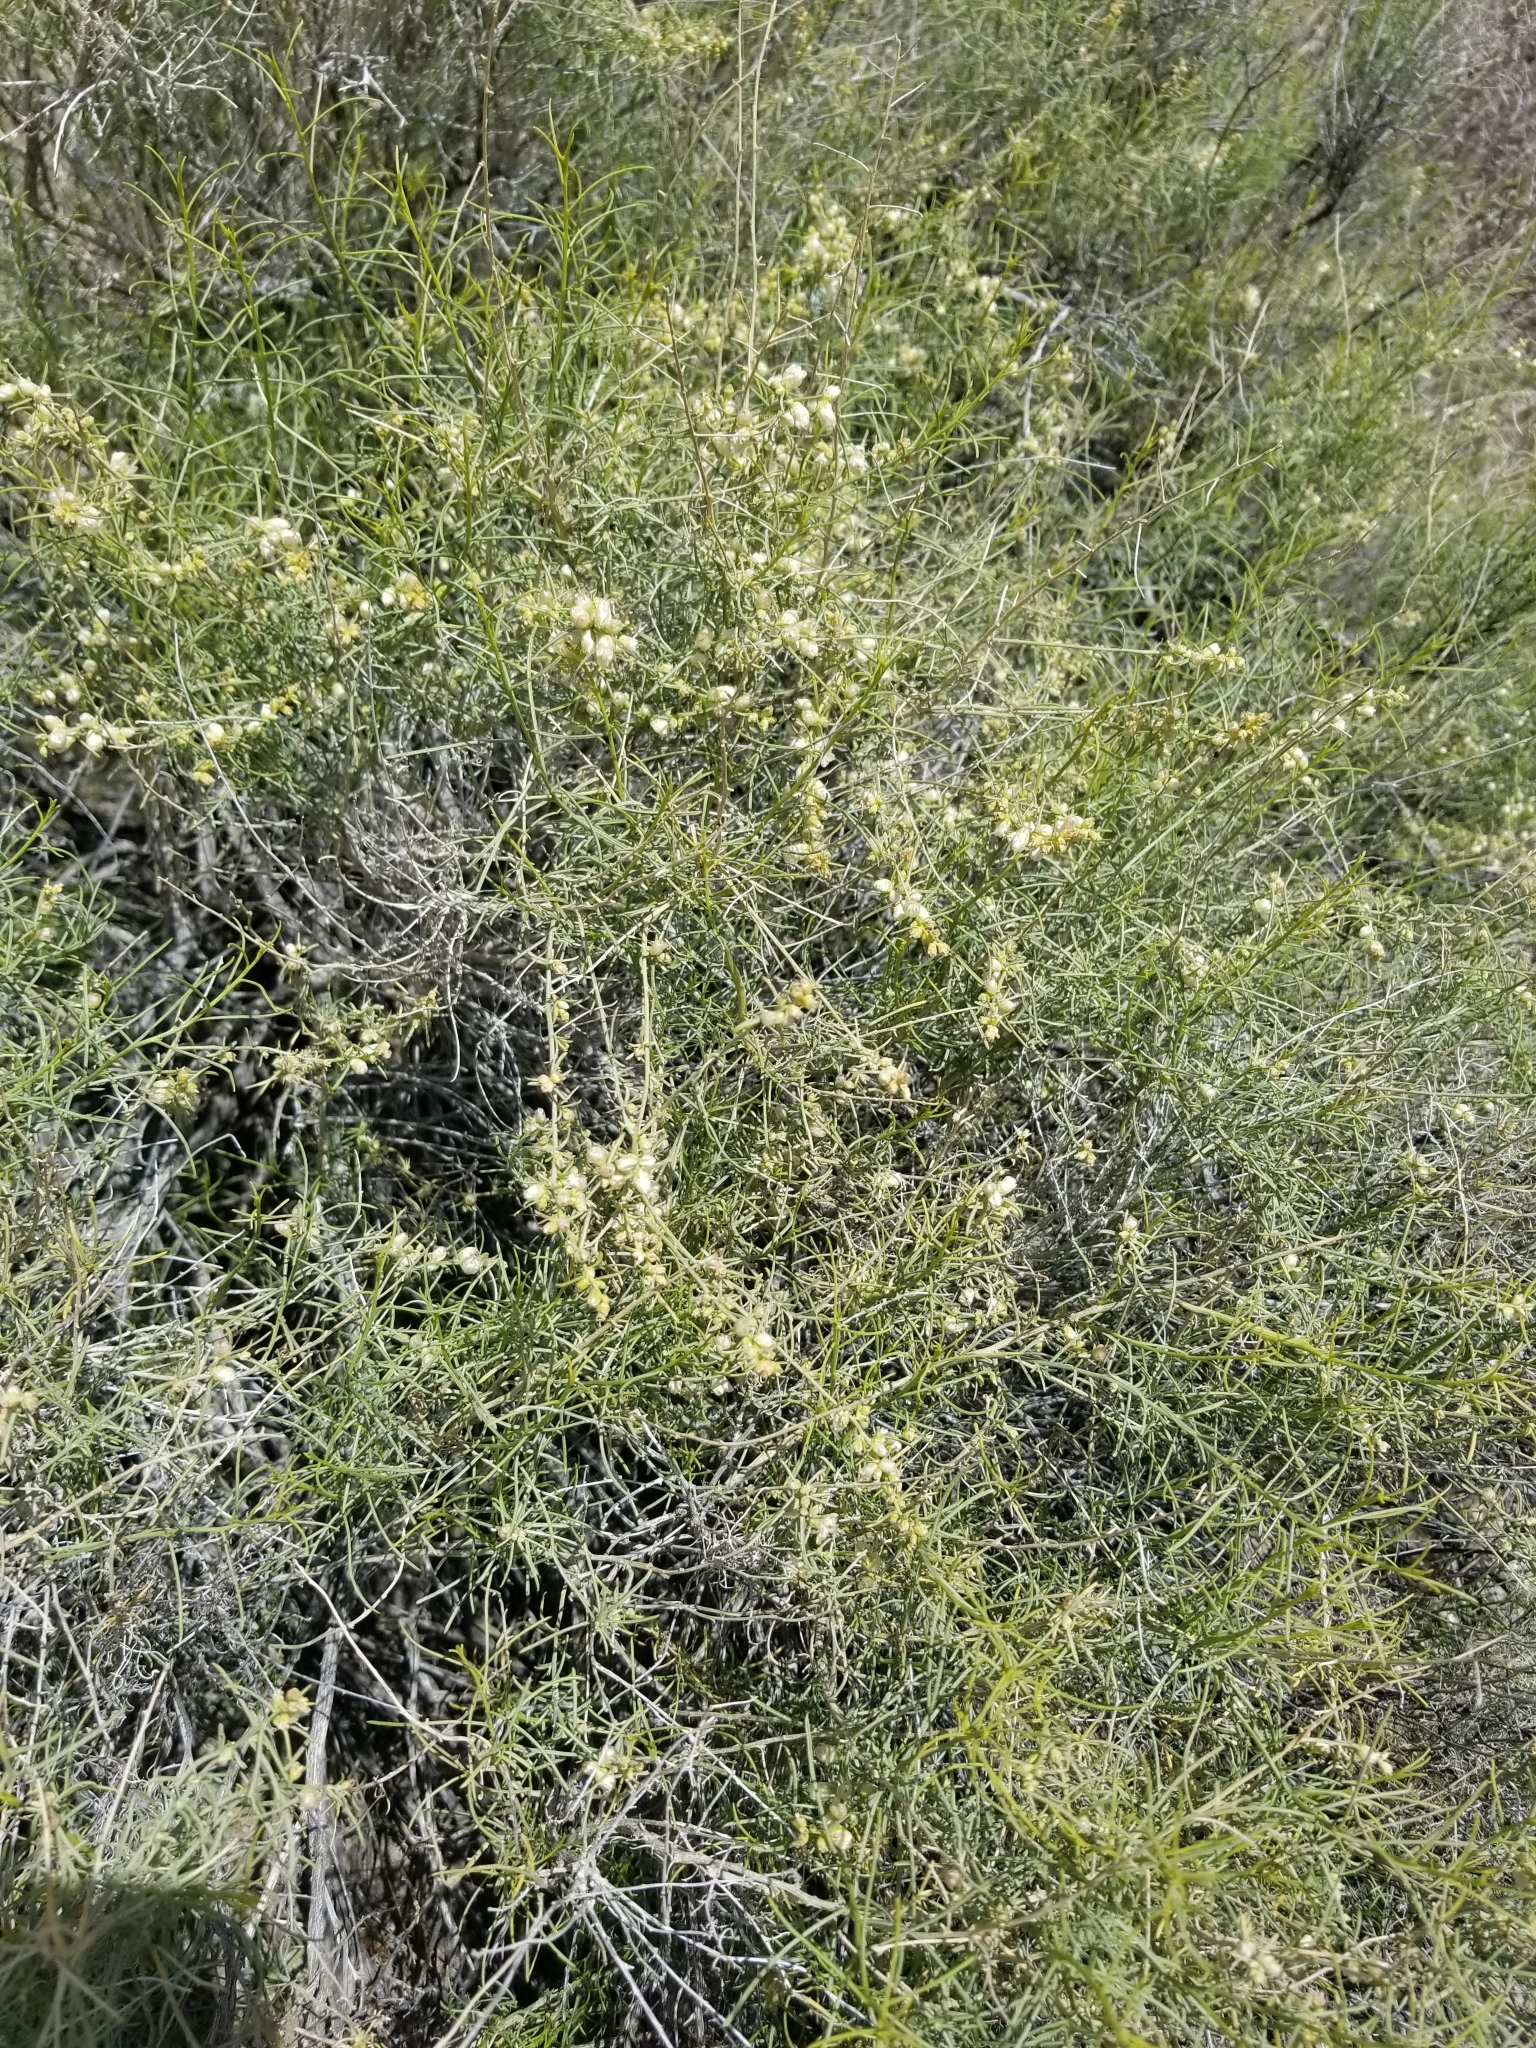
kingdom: Plantae
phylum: Tracheophyta
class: Magnoliopsida
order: Asterales
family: Asteraceae
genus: Ambrosia
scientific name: Ambrosia salsola
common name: Burrobrush
